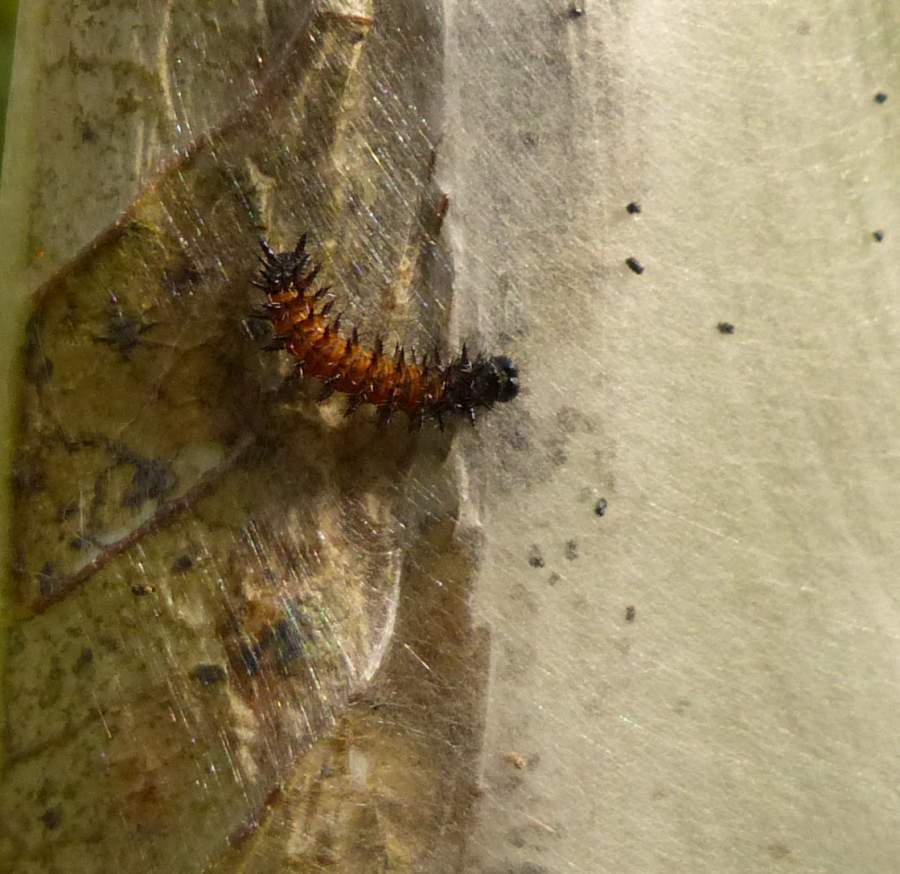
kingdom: Animalia
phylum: Arthropoda
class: Insecta
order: Lepidoptera
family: Nymphalidae
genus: Euphydryas
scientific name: Euphydryas phaeton
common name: Baltimore checkerspot
